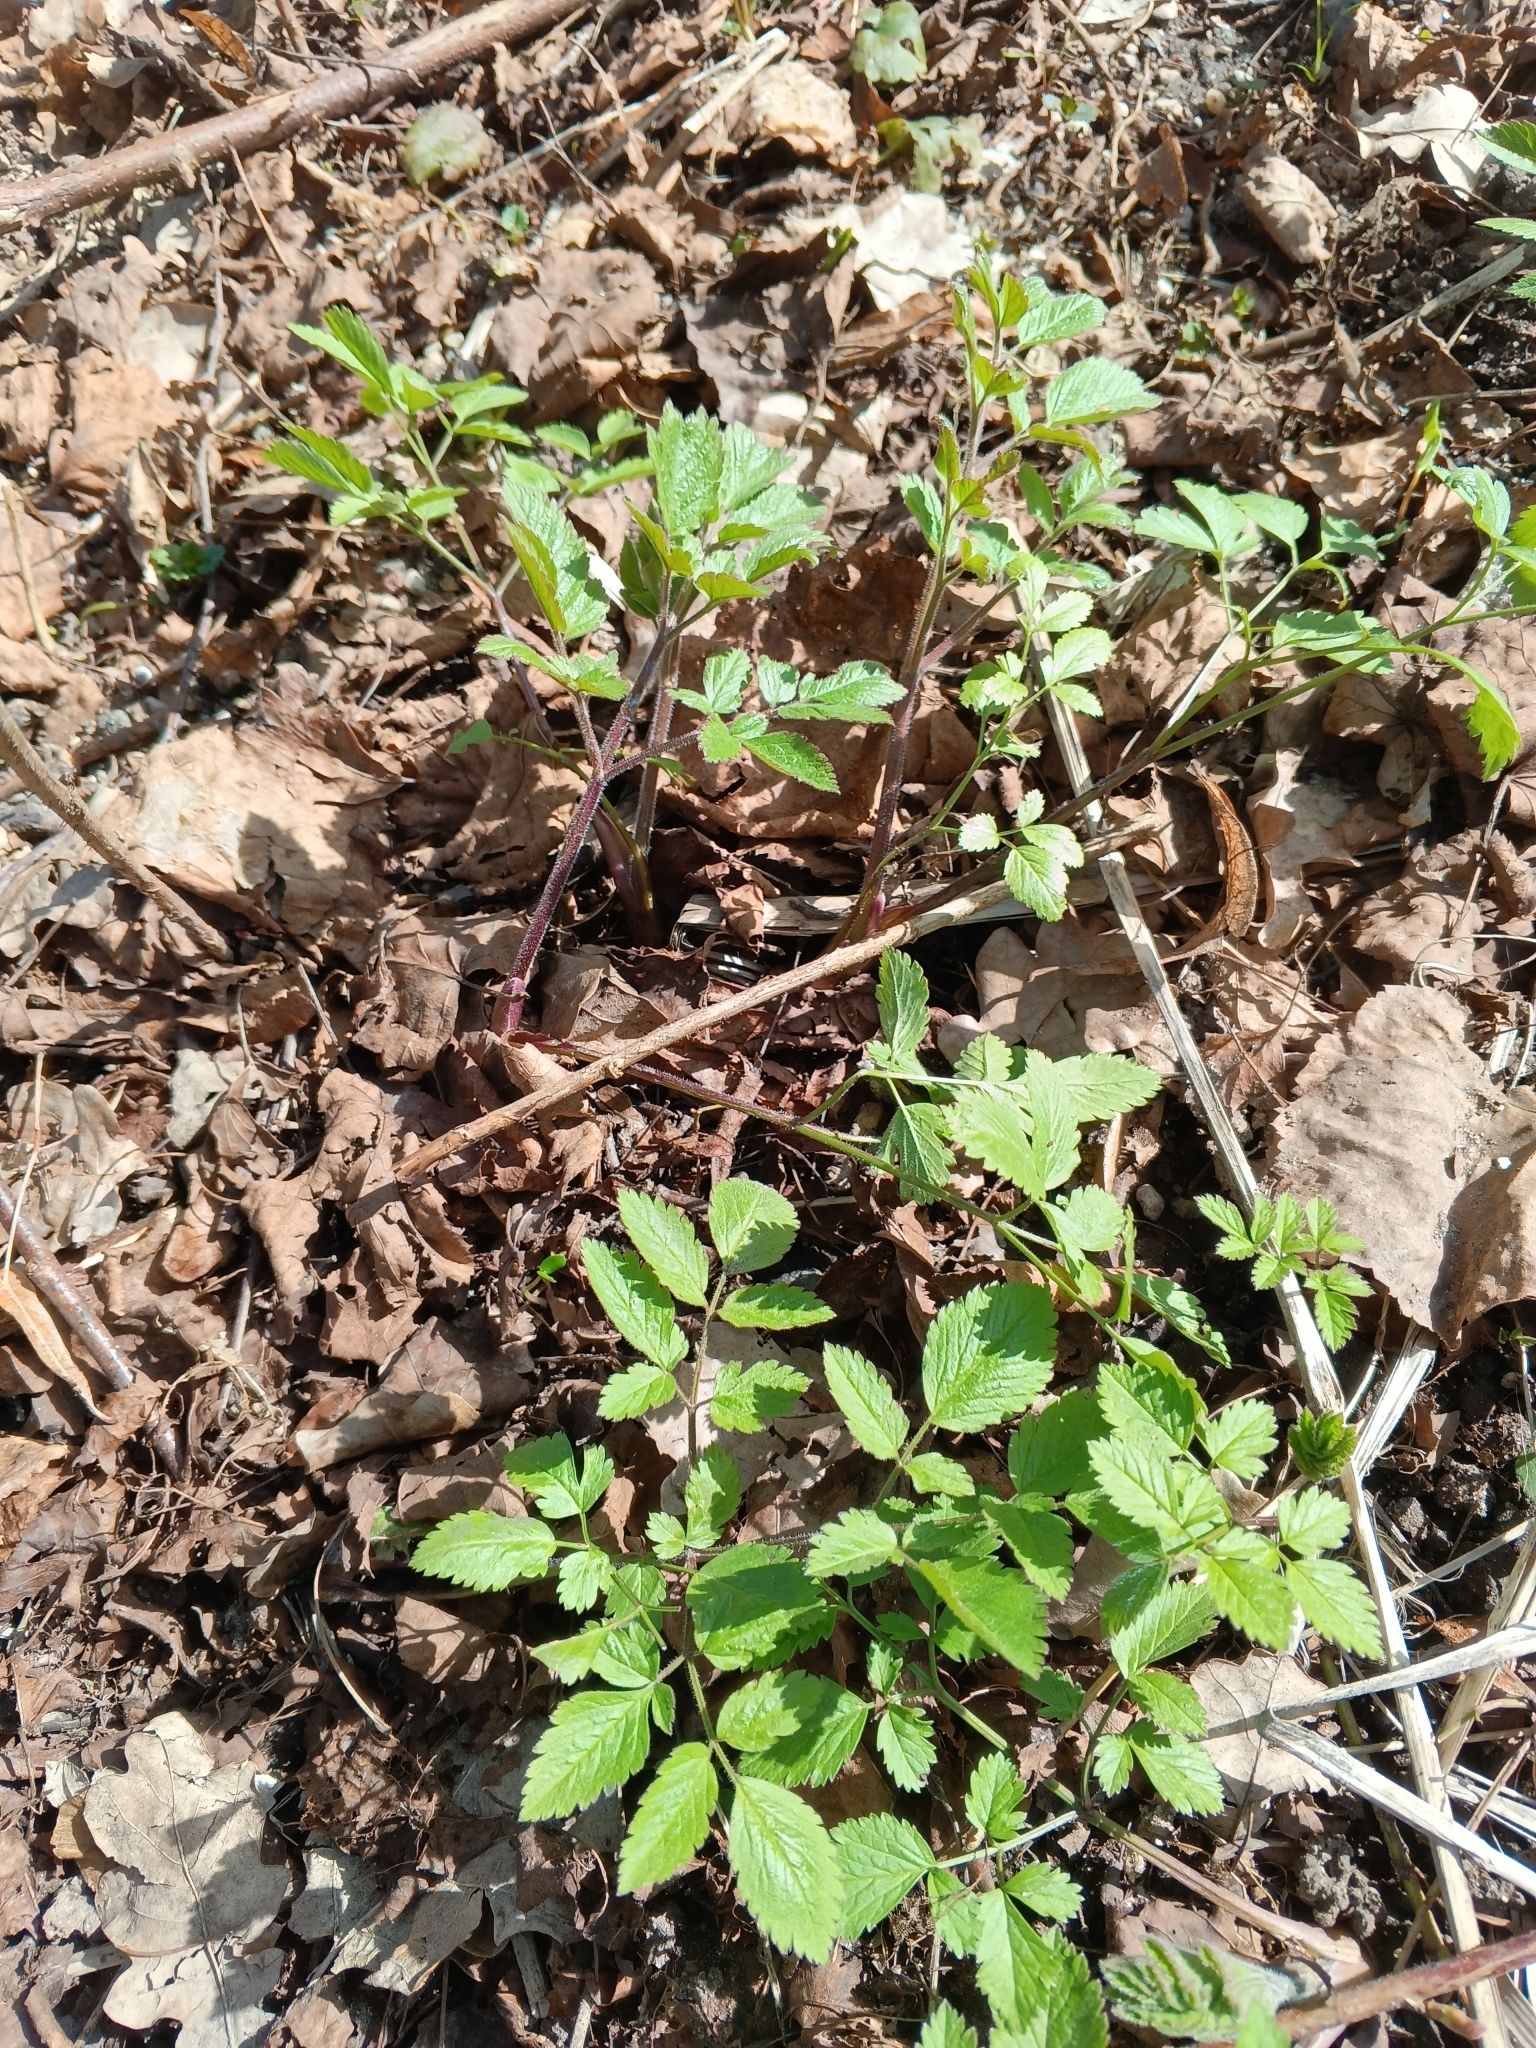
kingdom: Plantae
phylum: Tracheophyta
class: Magnoliopsida
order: Apiales
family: Apiaceae
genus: Chaerophyllum
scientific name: Chaerophyllum aromaticum
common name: Broadleaf chervil
